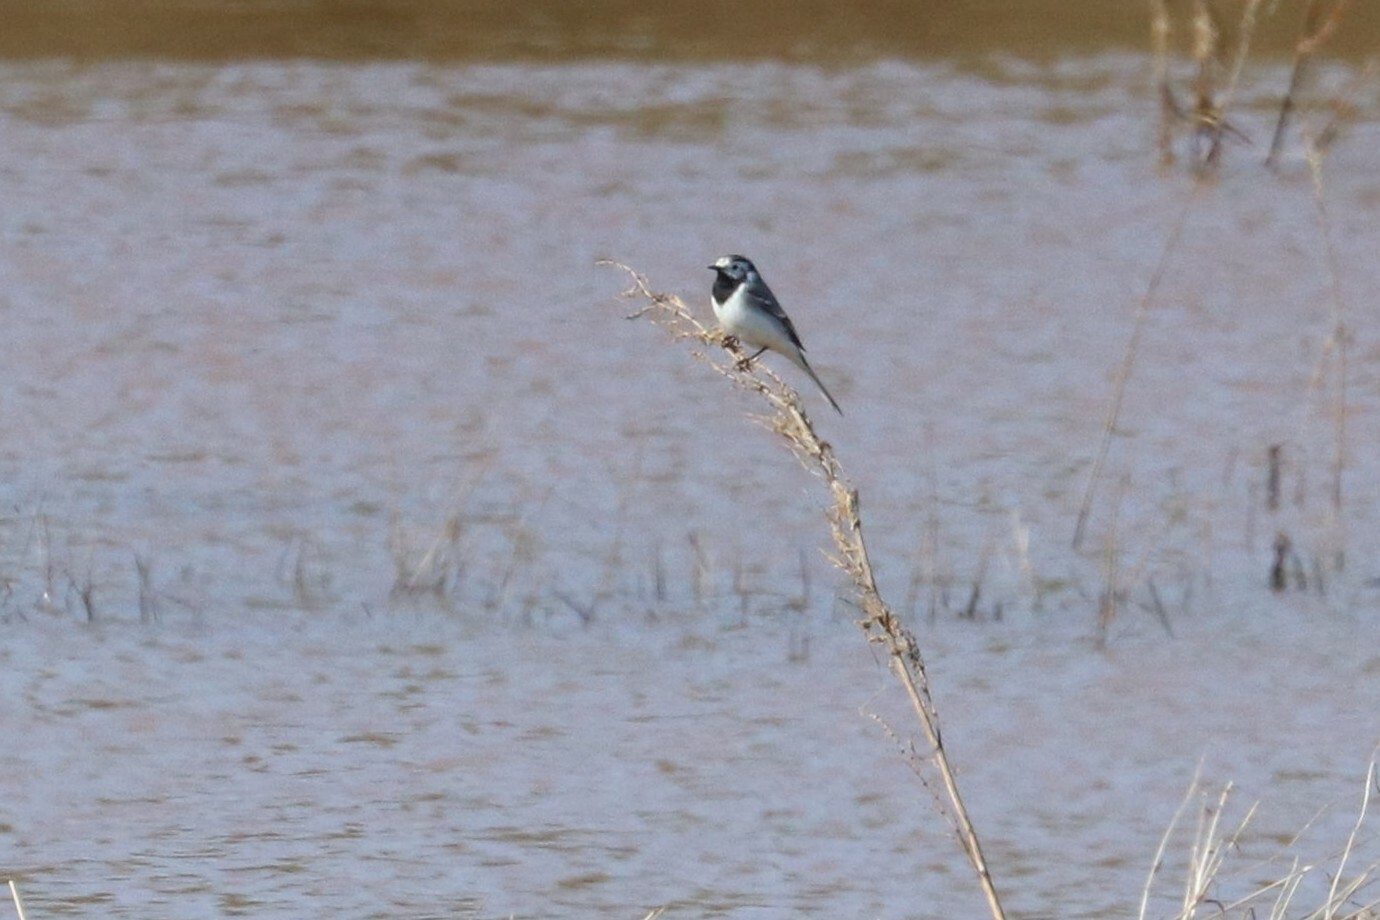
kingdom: Animalia
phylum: Chordata
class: Aves
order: Passeriformes
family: Motacillidae
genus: Motacilla
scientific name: Motacilla alba
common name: White wagtail
